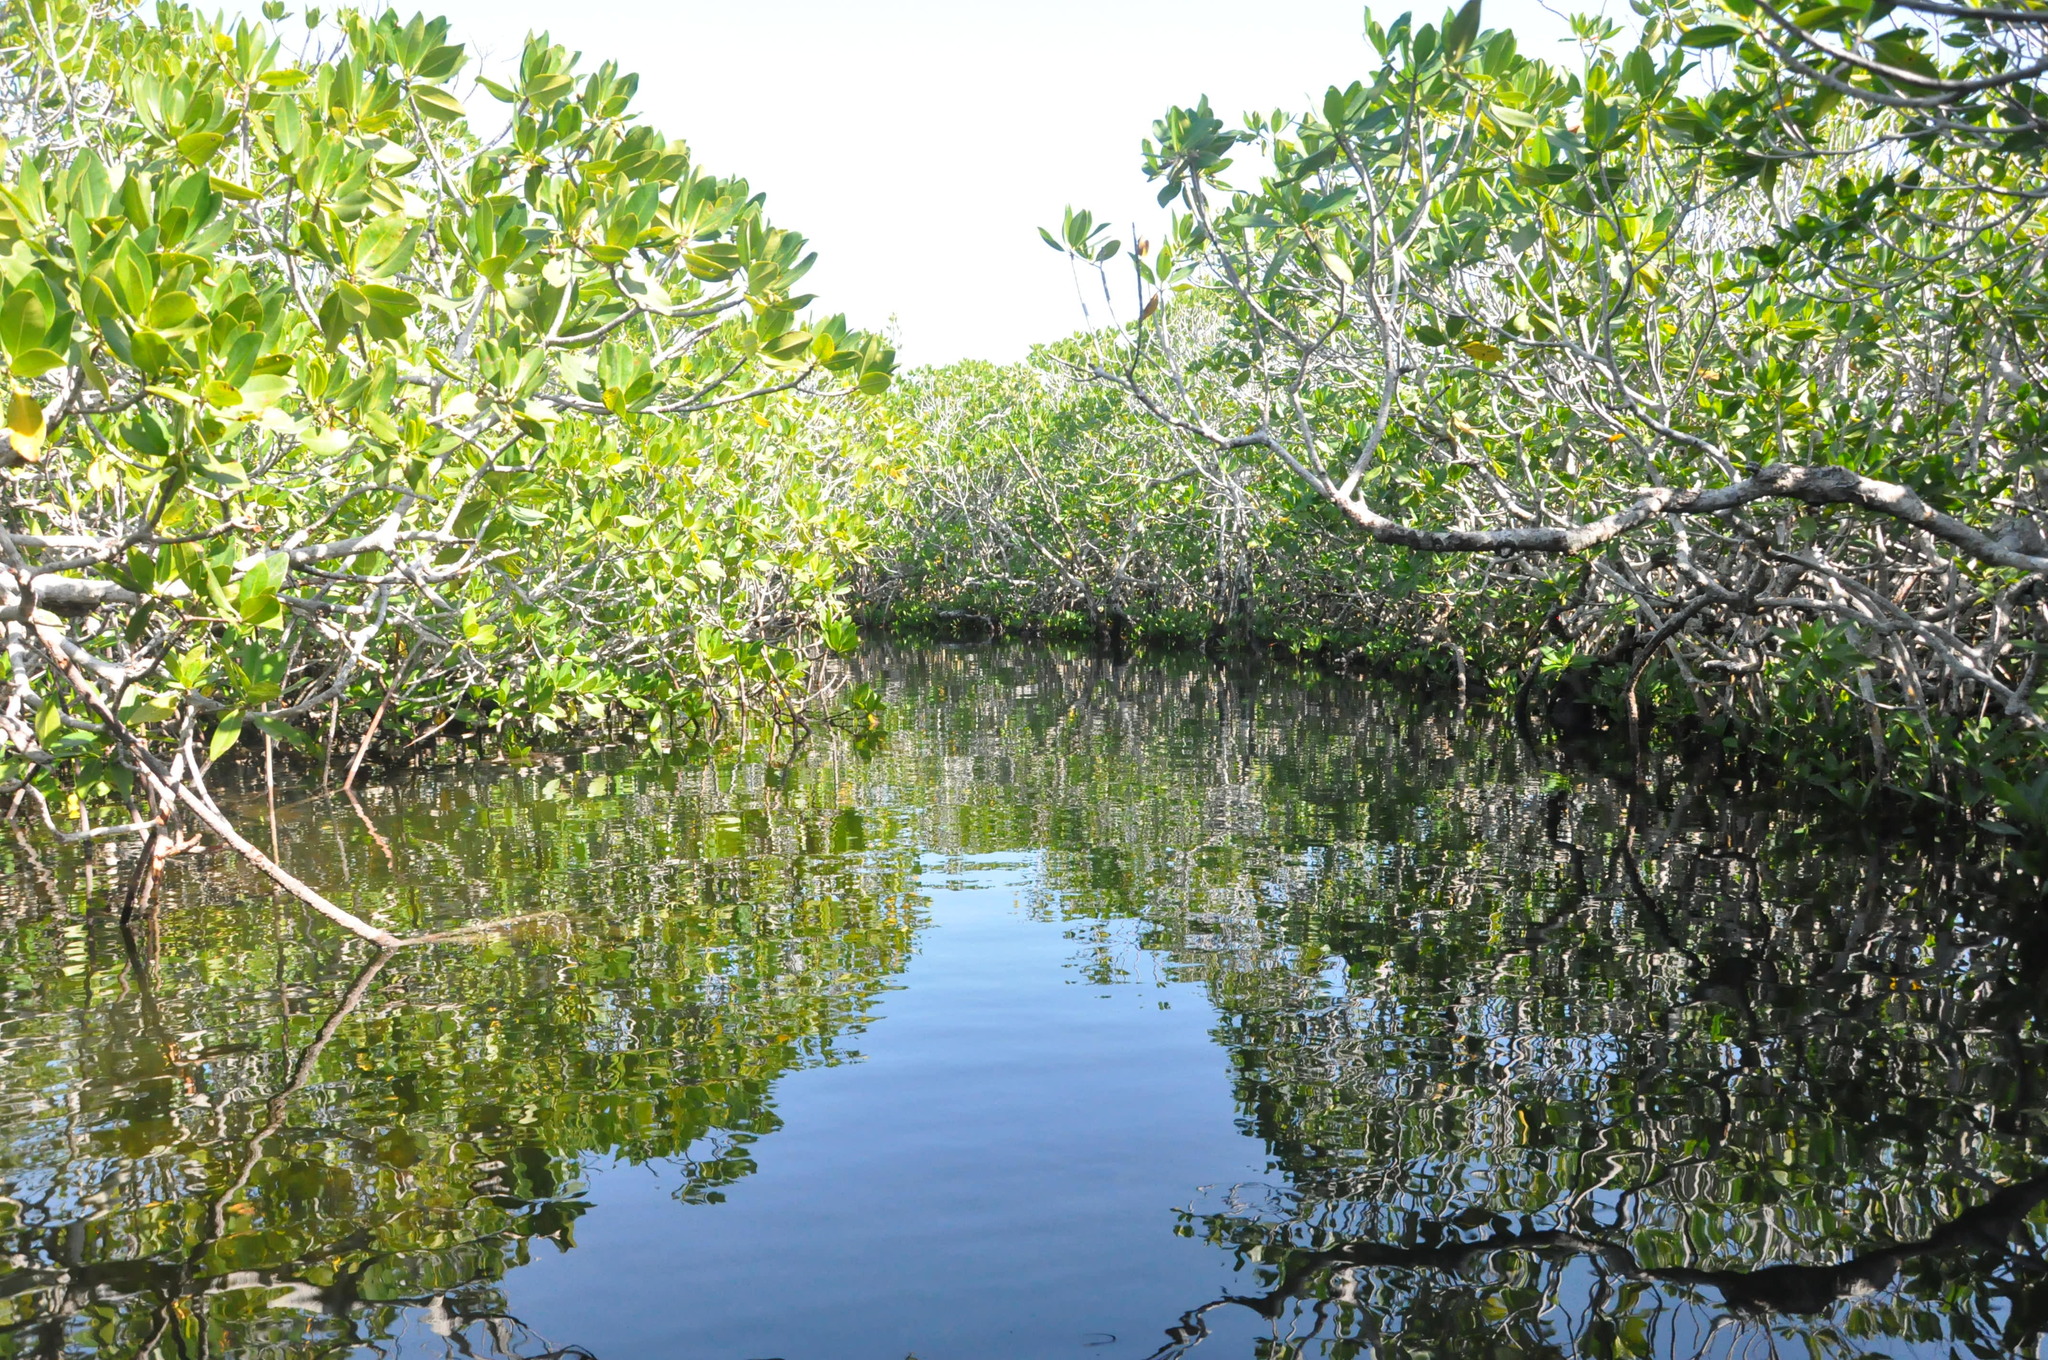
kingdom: Plantae
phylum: Tracheophyta
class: Magnoliopsida
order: Malpighiales
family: Rhizophoraceae
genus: Rhizophora
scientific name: Rhizophora mangle
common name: Red mangrove
